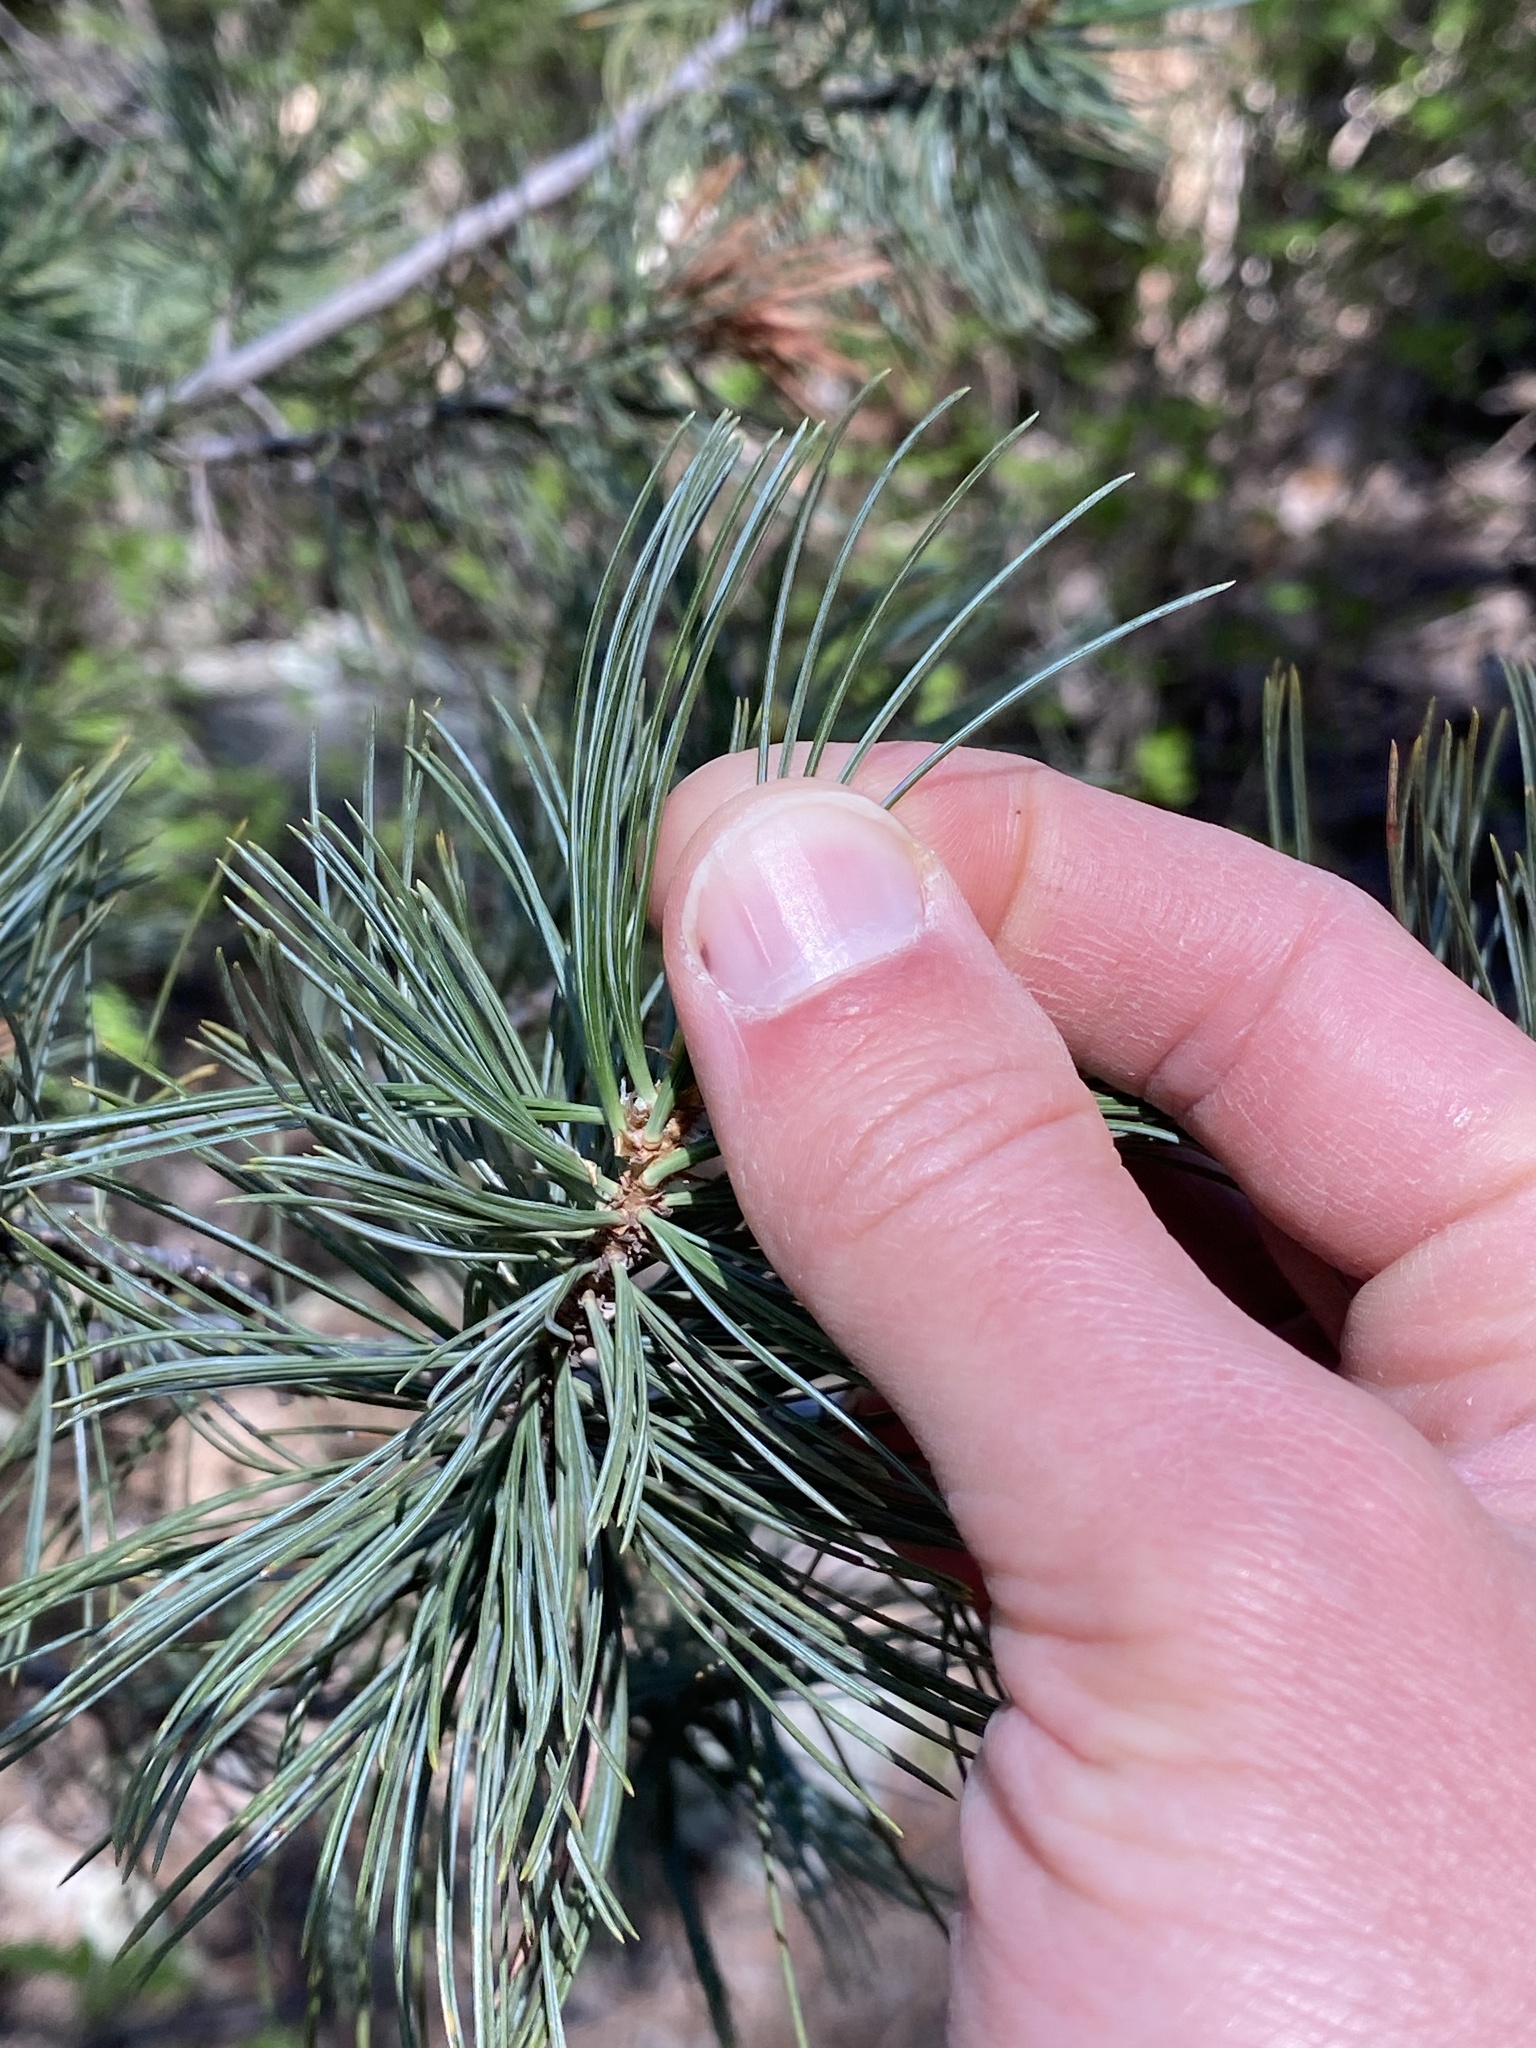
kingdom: Plantae
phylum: Tracheophyta
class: Pinopsida
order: Pinales
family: Pinaceae
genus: Pinus
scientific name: Pinus flexilis
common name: Limber pine
